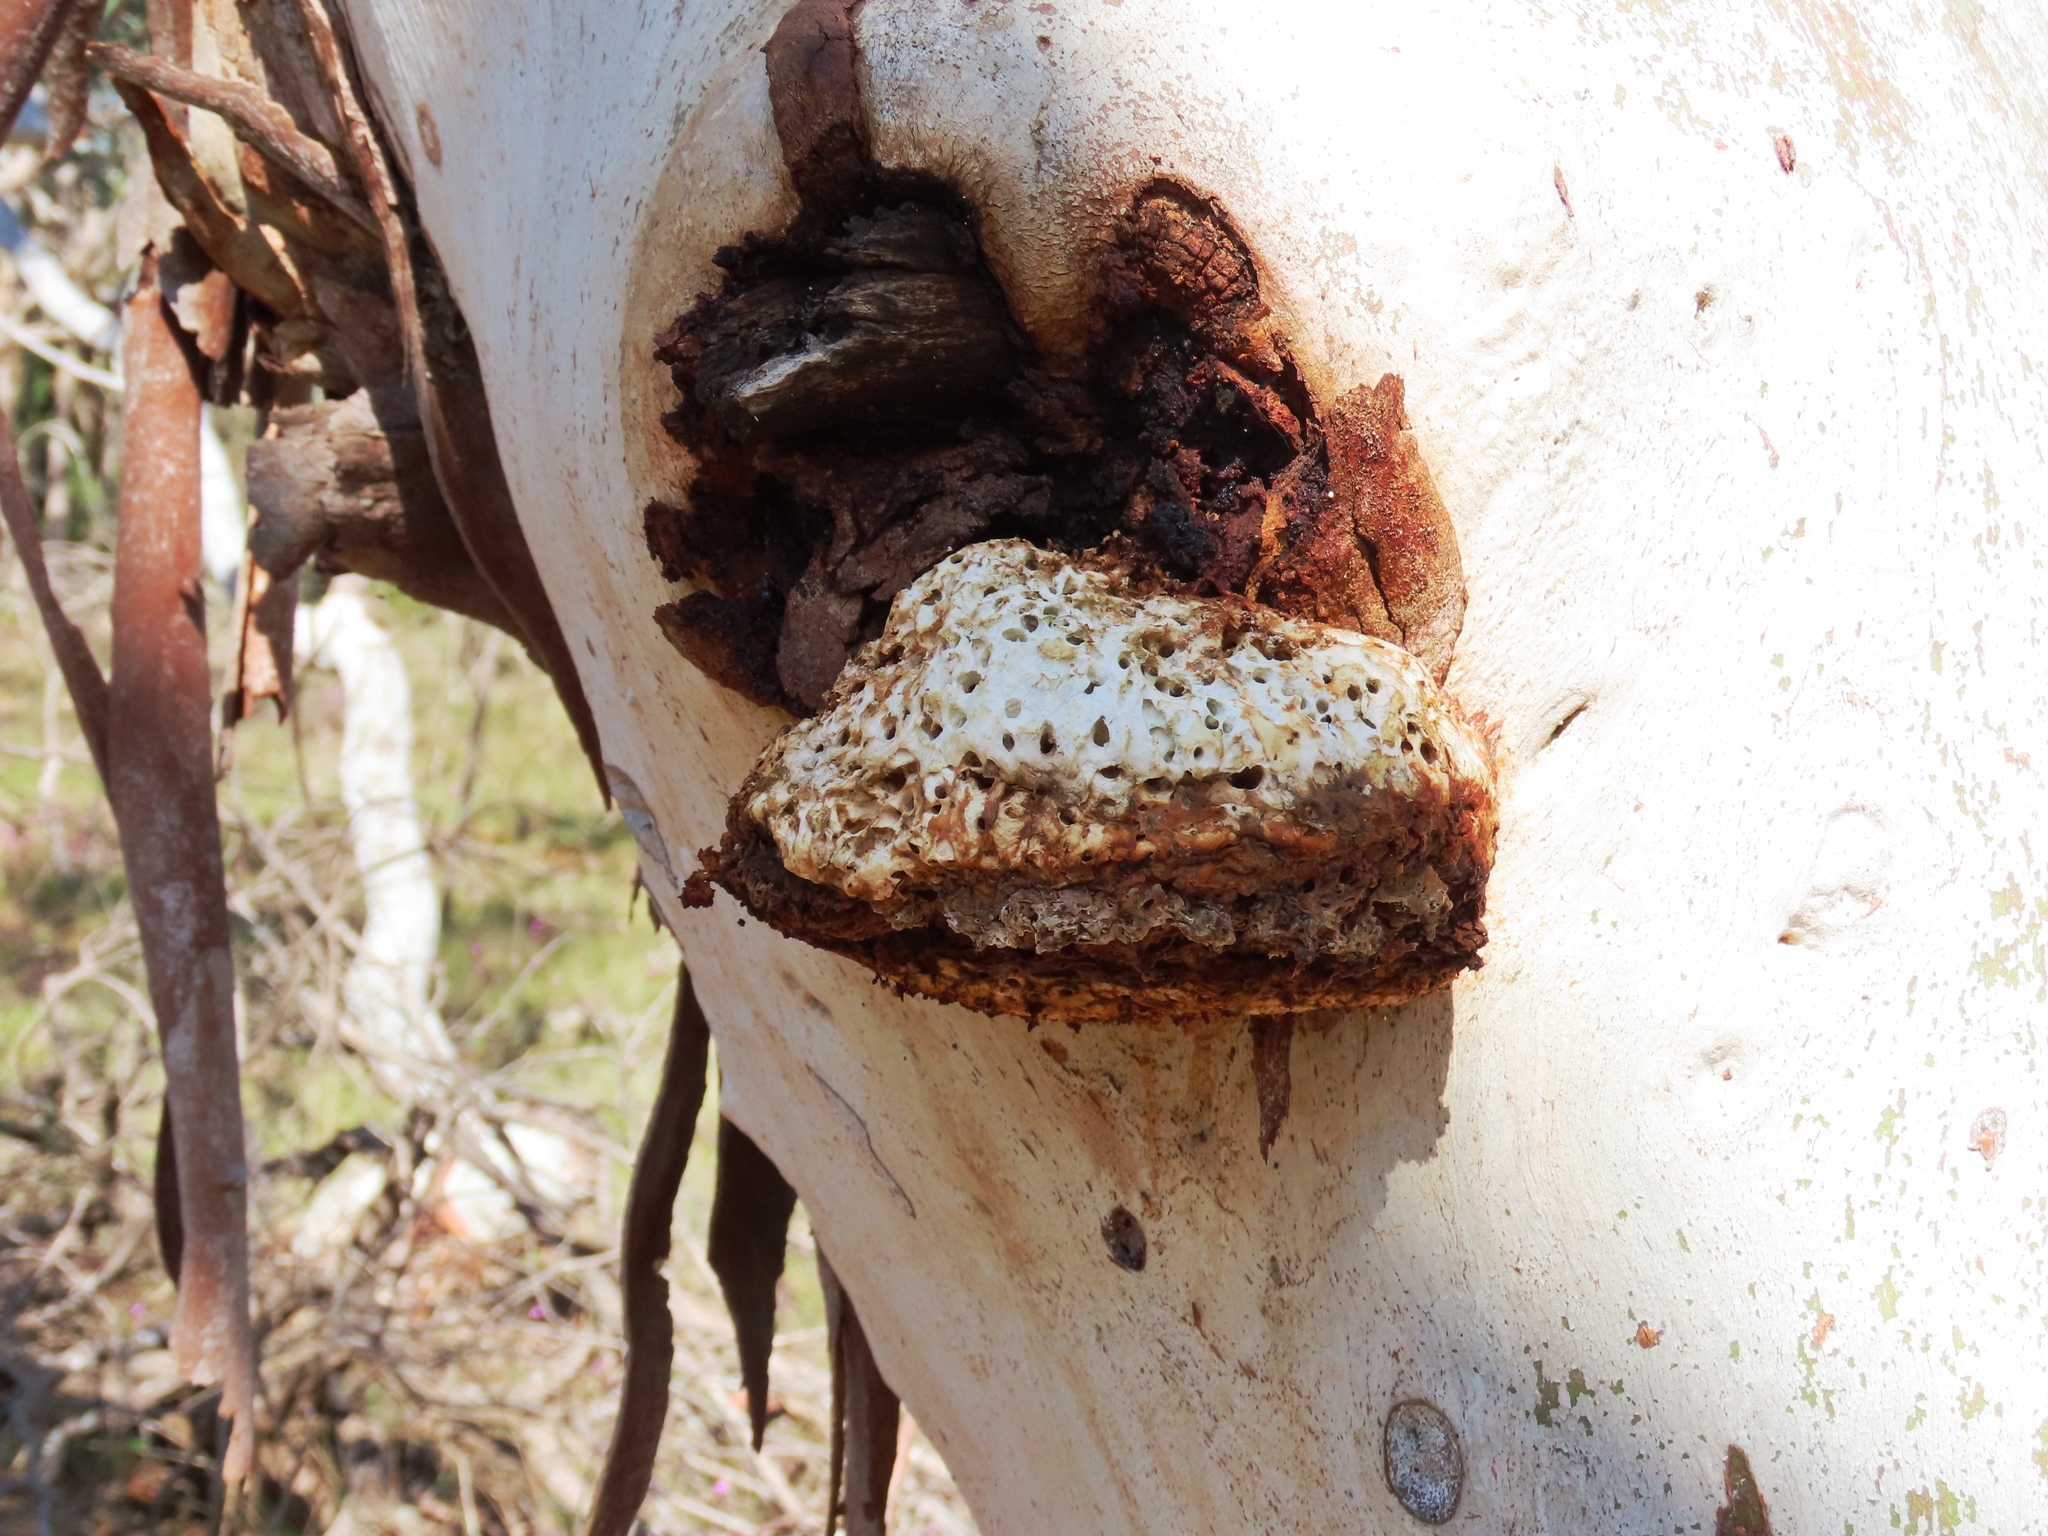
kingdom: Fungi
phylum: Basidiomycota
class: Agaricomycetes
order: Polyporales
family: Laetiporaceae
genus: Laetiporus
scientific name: Laetiporus portentosus
